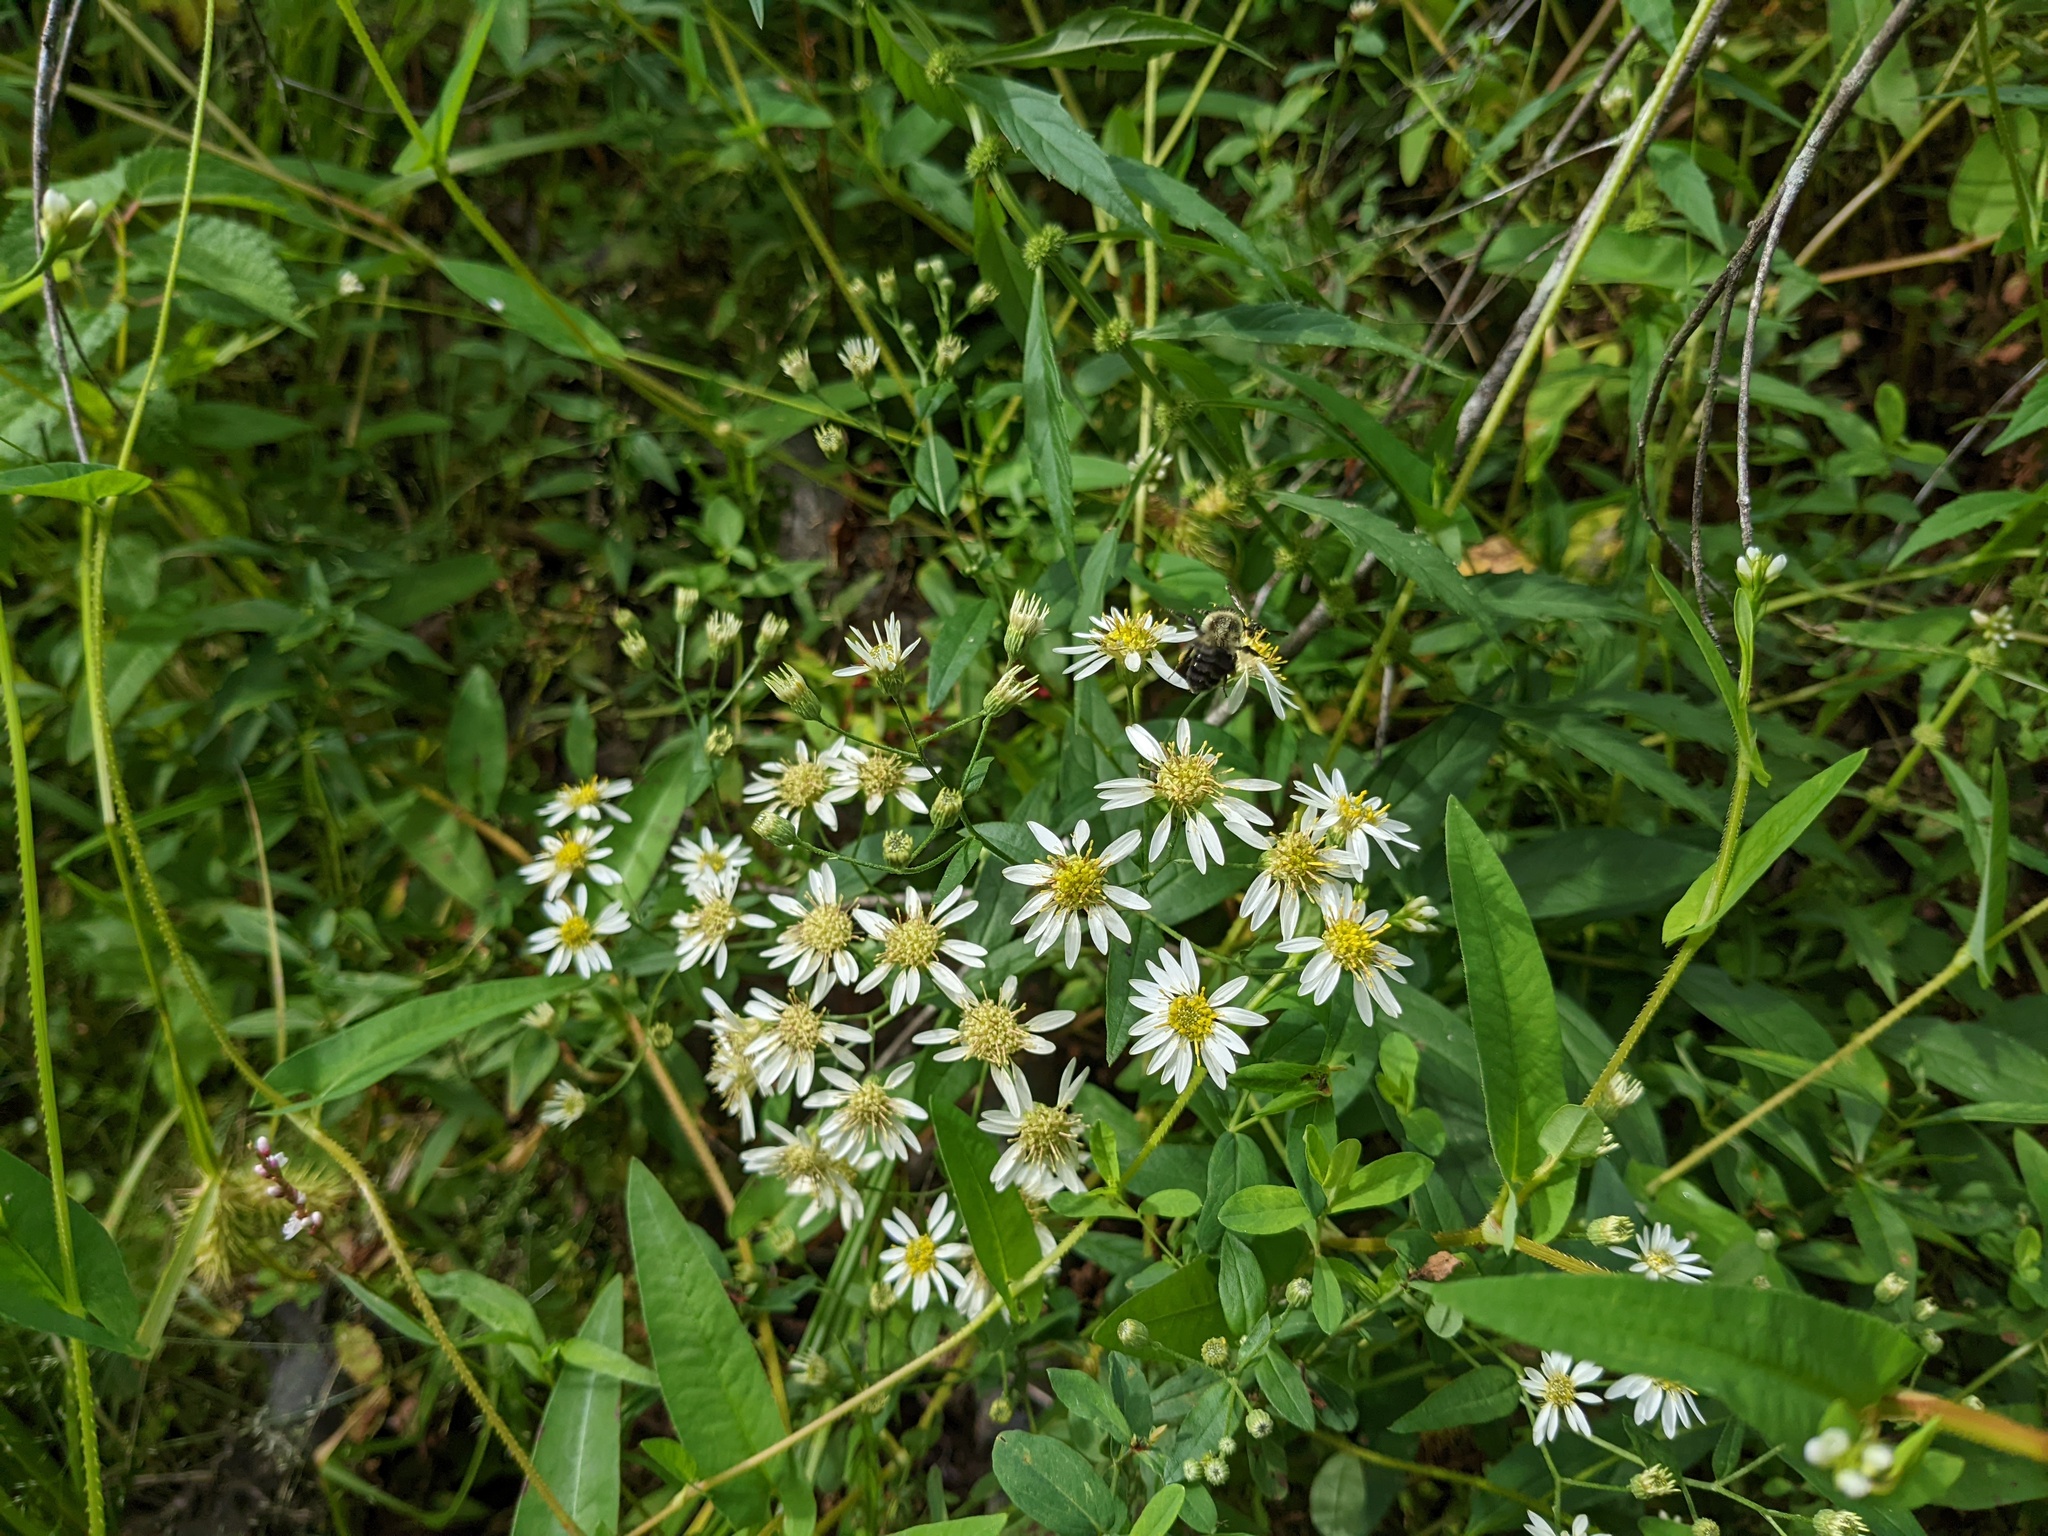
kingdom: Plantae
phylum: Tracheophyta
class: Magnoliopsida
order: Asterales
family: Asteraceae
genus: Doellingeria
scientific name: Doellingeria umbellata
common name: Flat-top white aster
